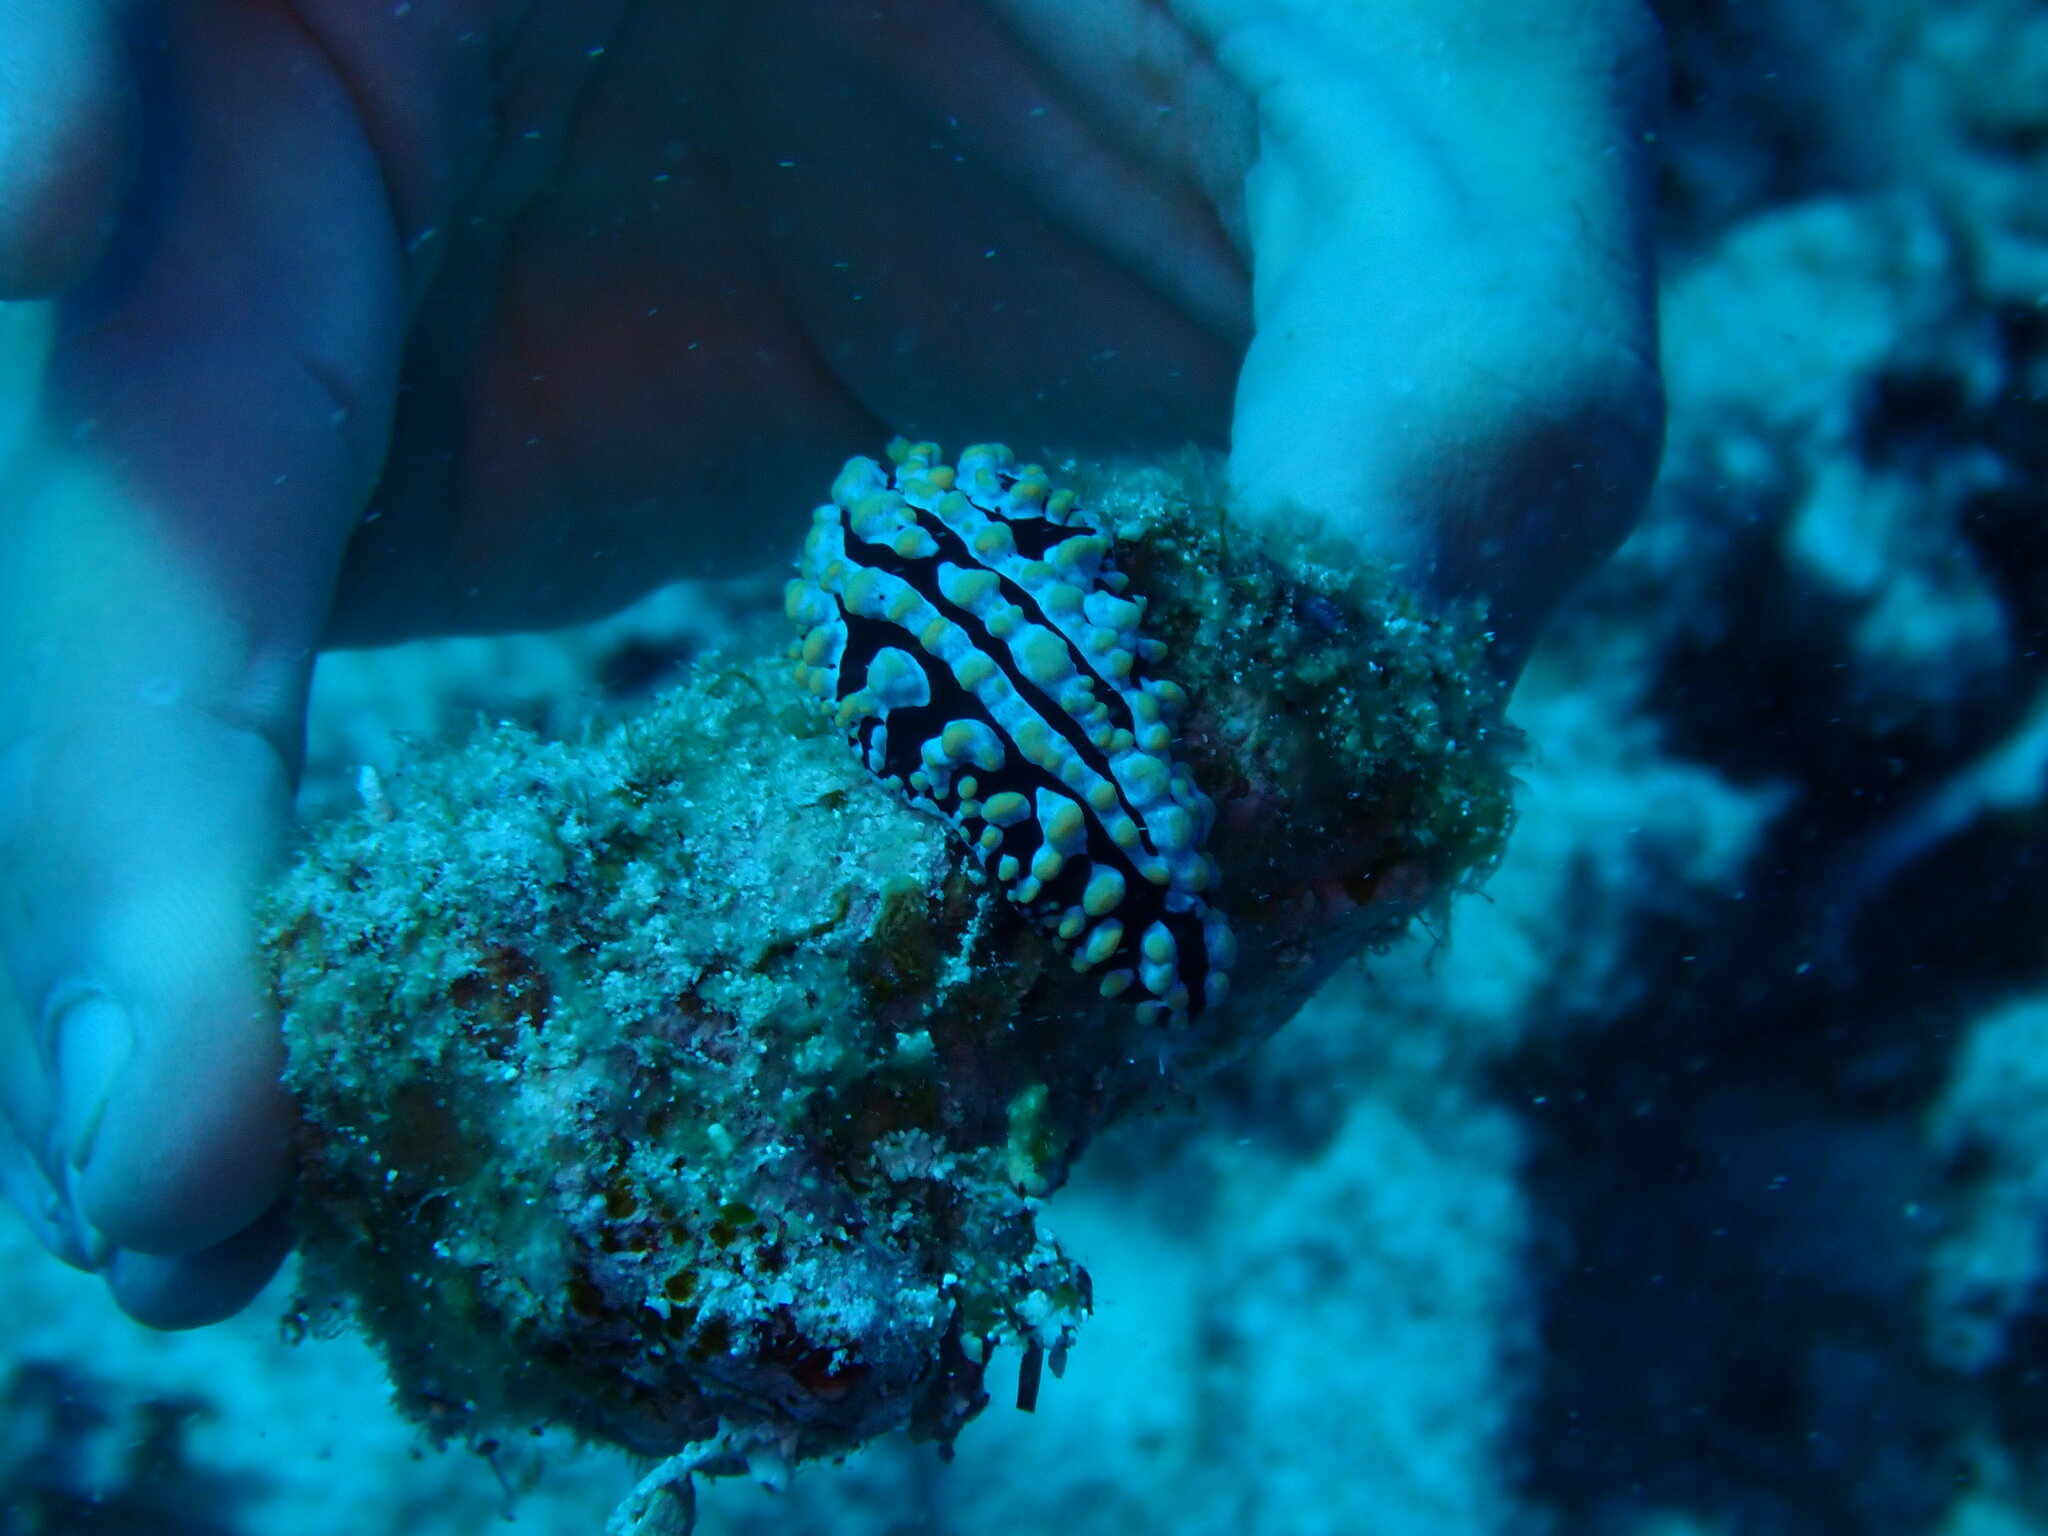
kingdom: Animalia
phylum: Mollusca
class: Gastropoda
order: Nudibranchia
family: Phyllidiidae
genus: Phyllidia
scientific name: Phyllidia varicosa
